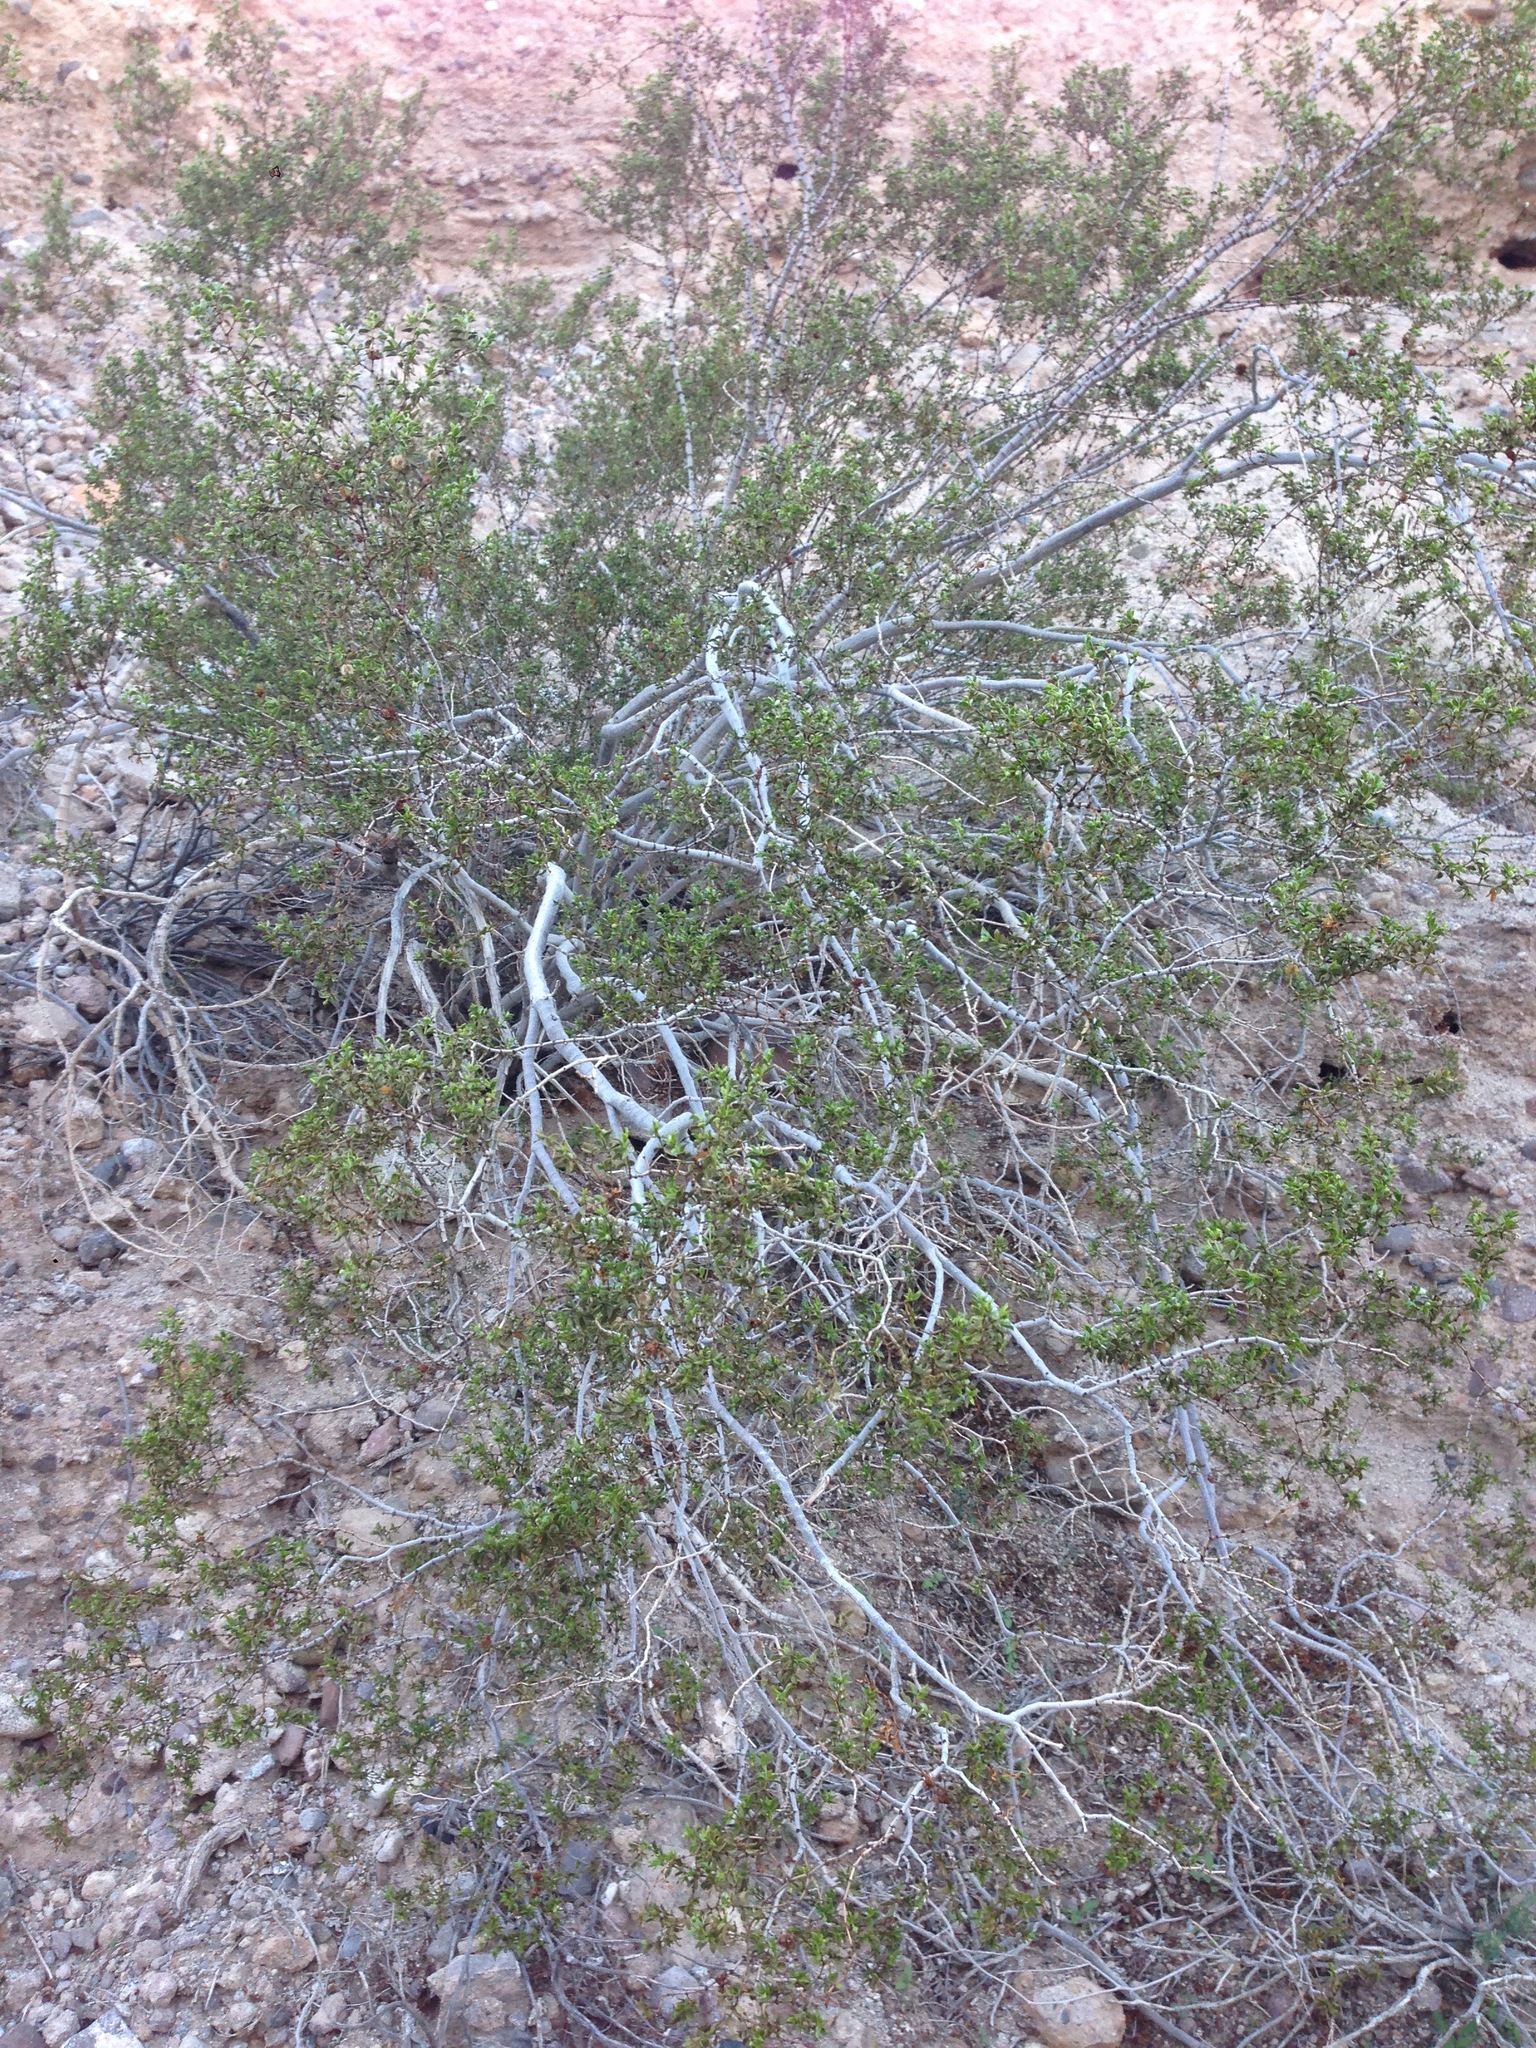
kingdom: Plantae
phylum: Tracheophyta
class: Magnoliopsida
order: Zygophyllales
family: Zygophyllaceae
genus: Larrea
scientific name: Larrea tridentata
